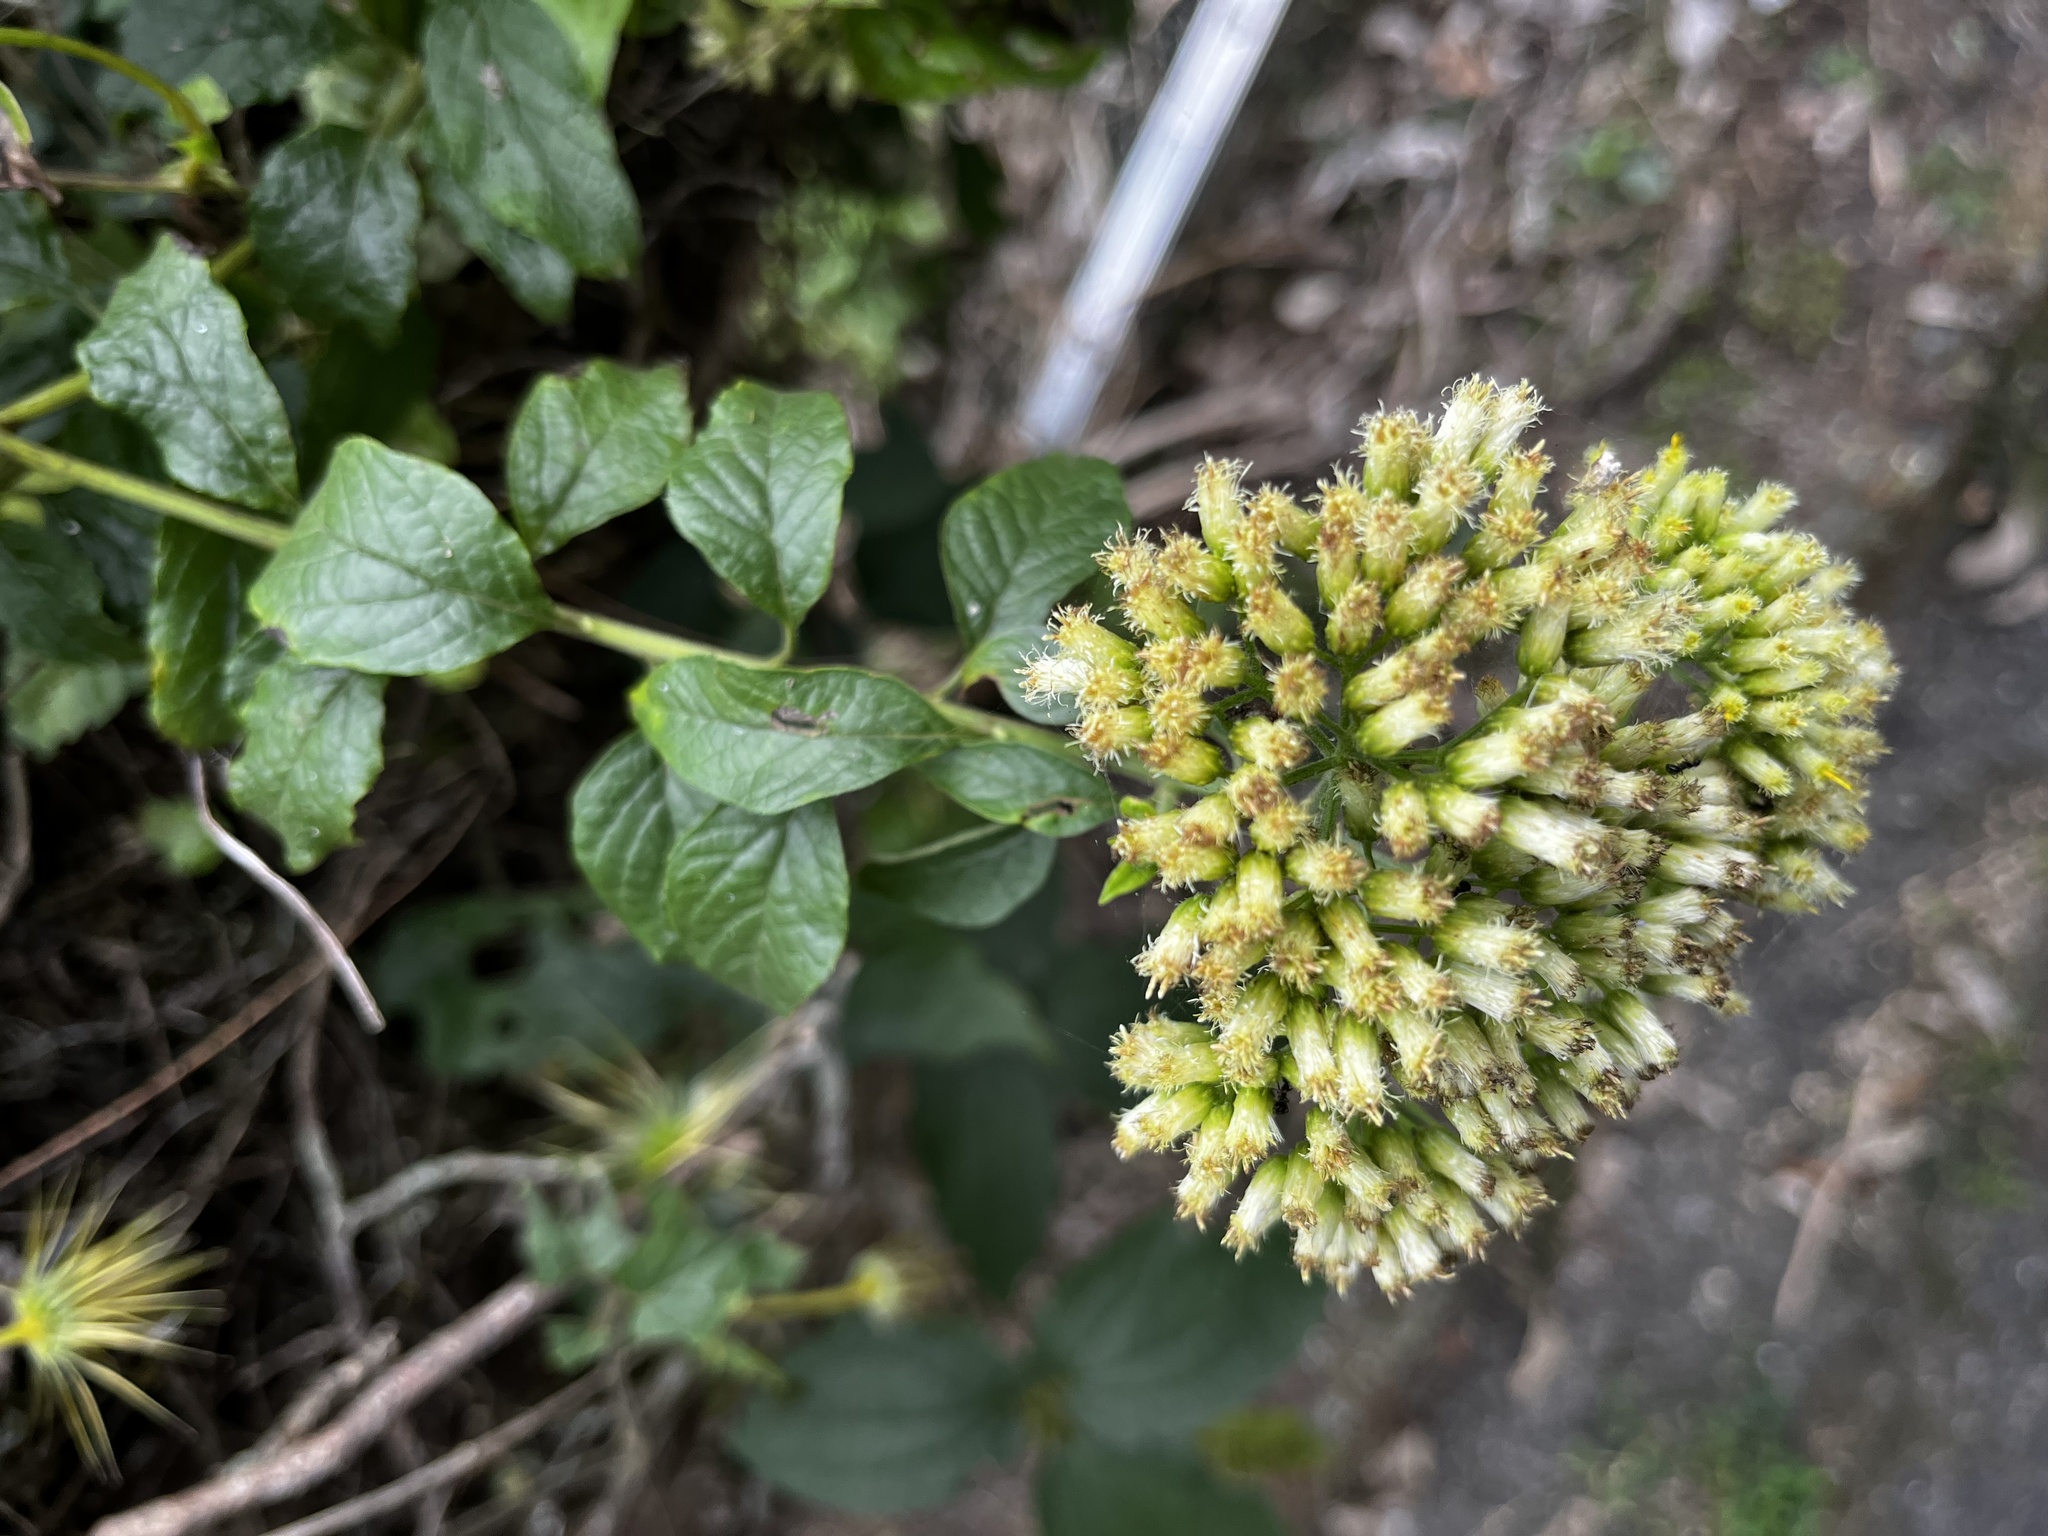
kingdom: Plantae
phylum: Tracheophyta
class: Magnoliopsida
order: Asterales
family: Asteraceae
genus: Microglossa
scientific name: Microglossa pyrifolia
